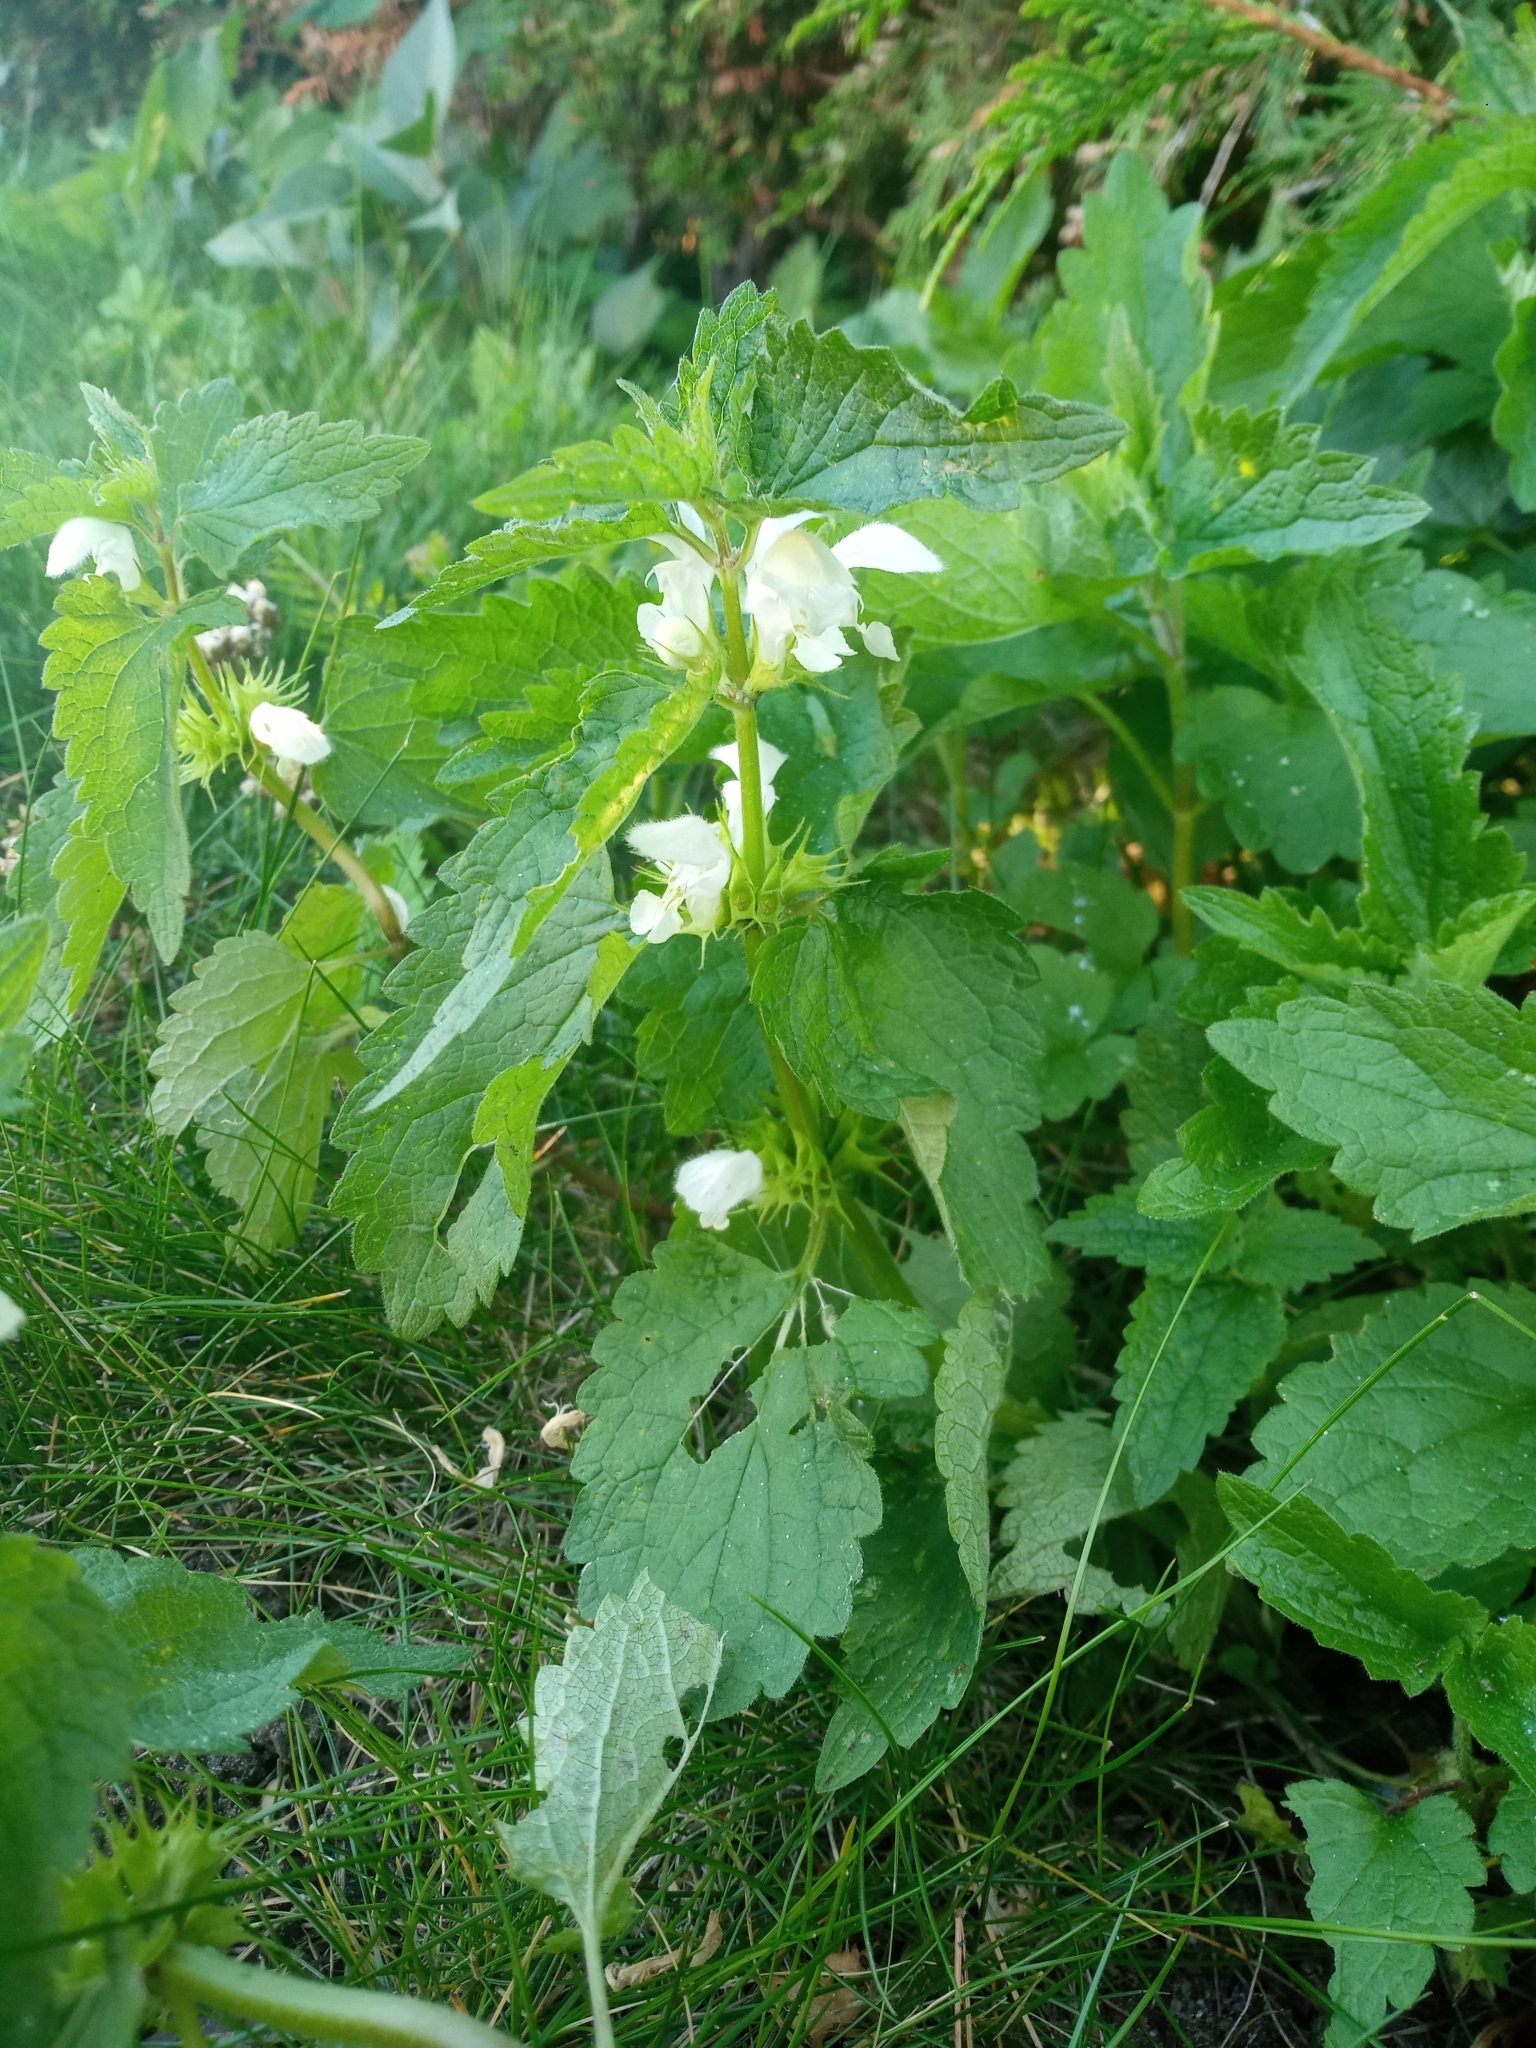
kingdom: Plantae
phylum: Tracheophyta
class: Magnoliopsida
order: Lamiales
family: Lamiaceae
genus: Lamium
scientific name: Lamium album
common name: White dead-nettle
